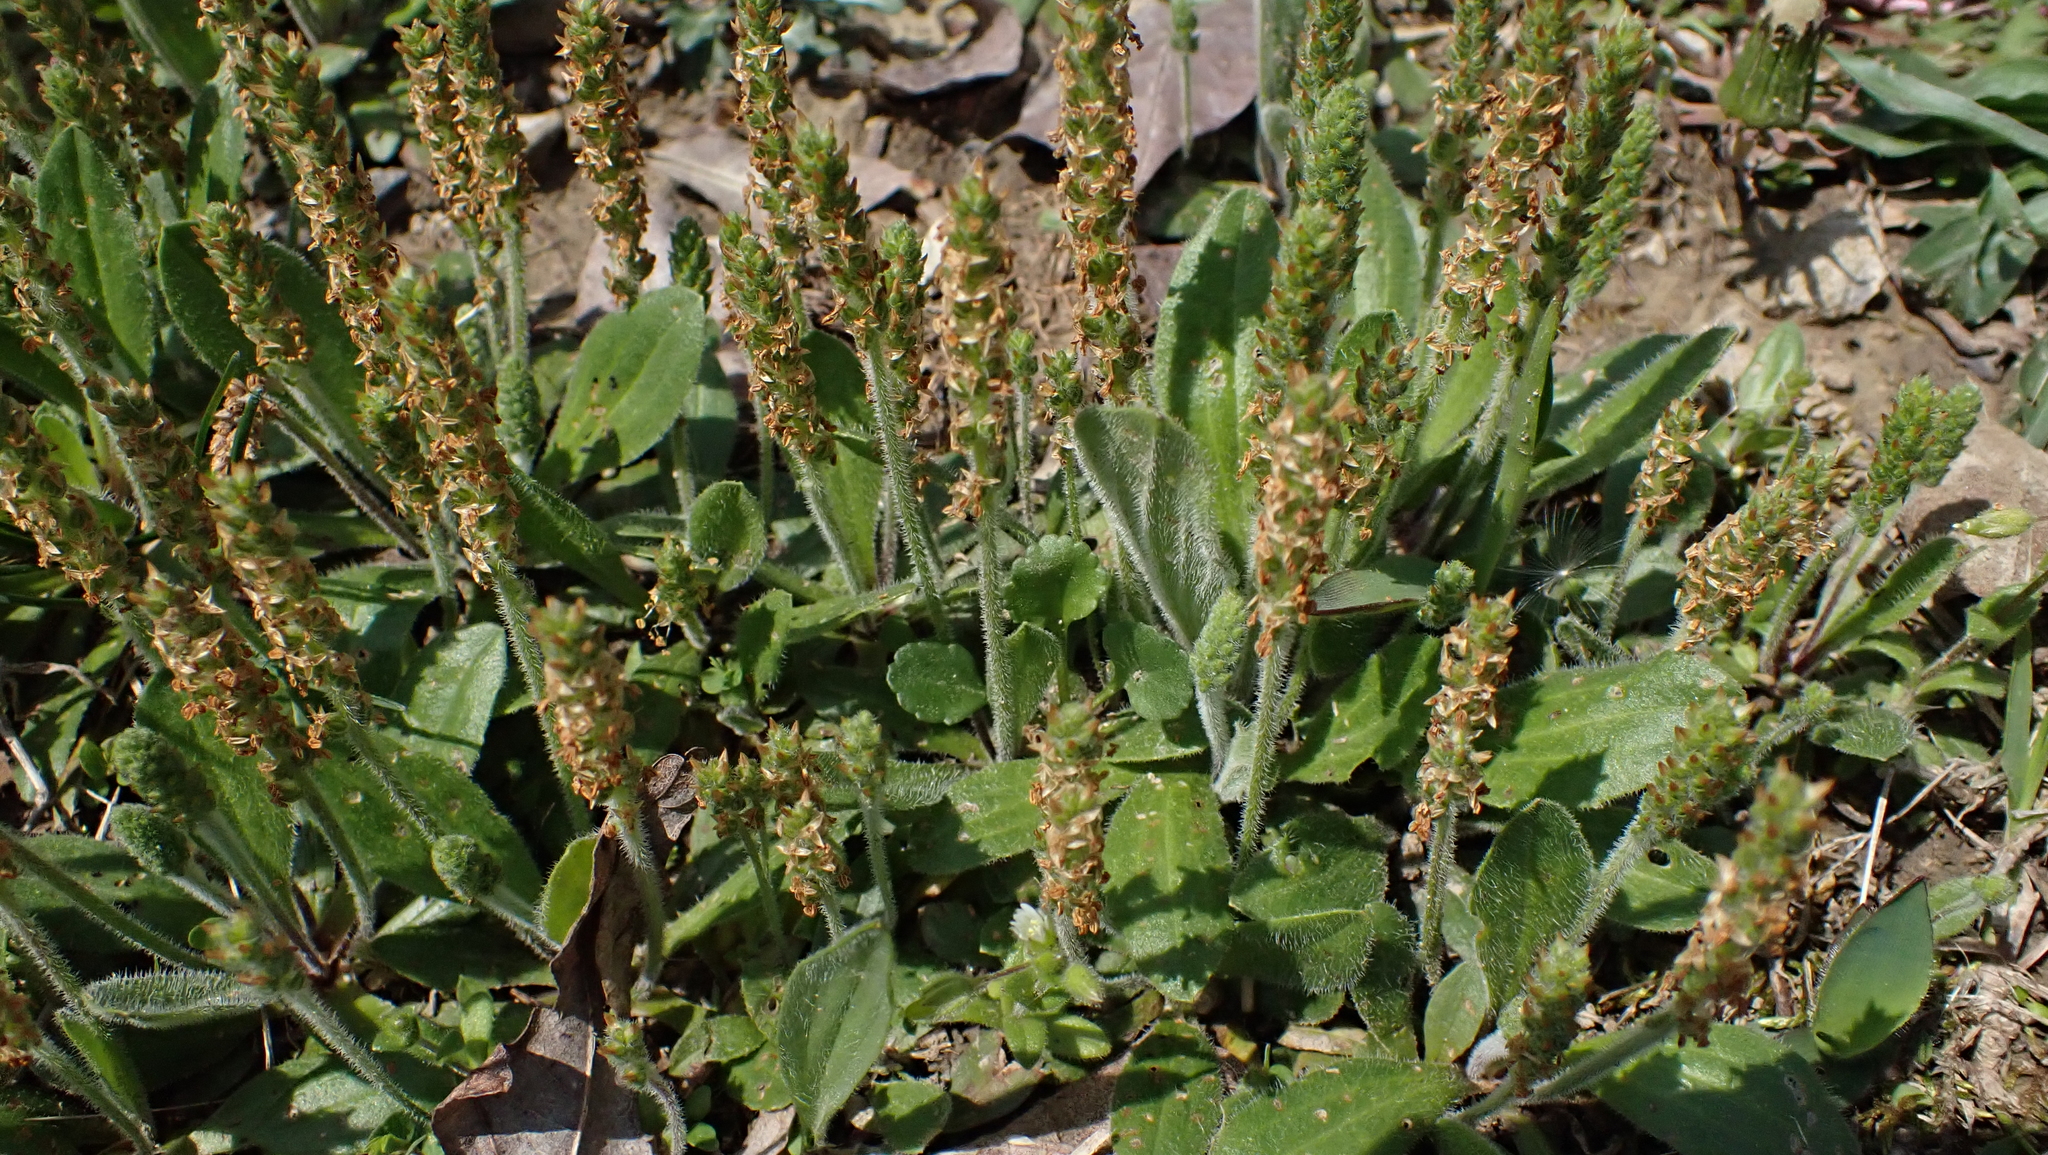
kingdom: Plantae
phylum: Tracheophyta
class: Magnoliopsida
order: Lamiales
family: Plantaginaceae
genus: Plantago
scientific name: Plantago virginica
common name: Hoary plantain
